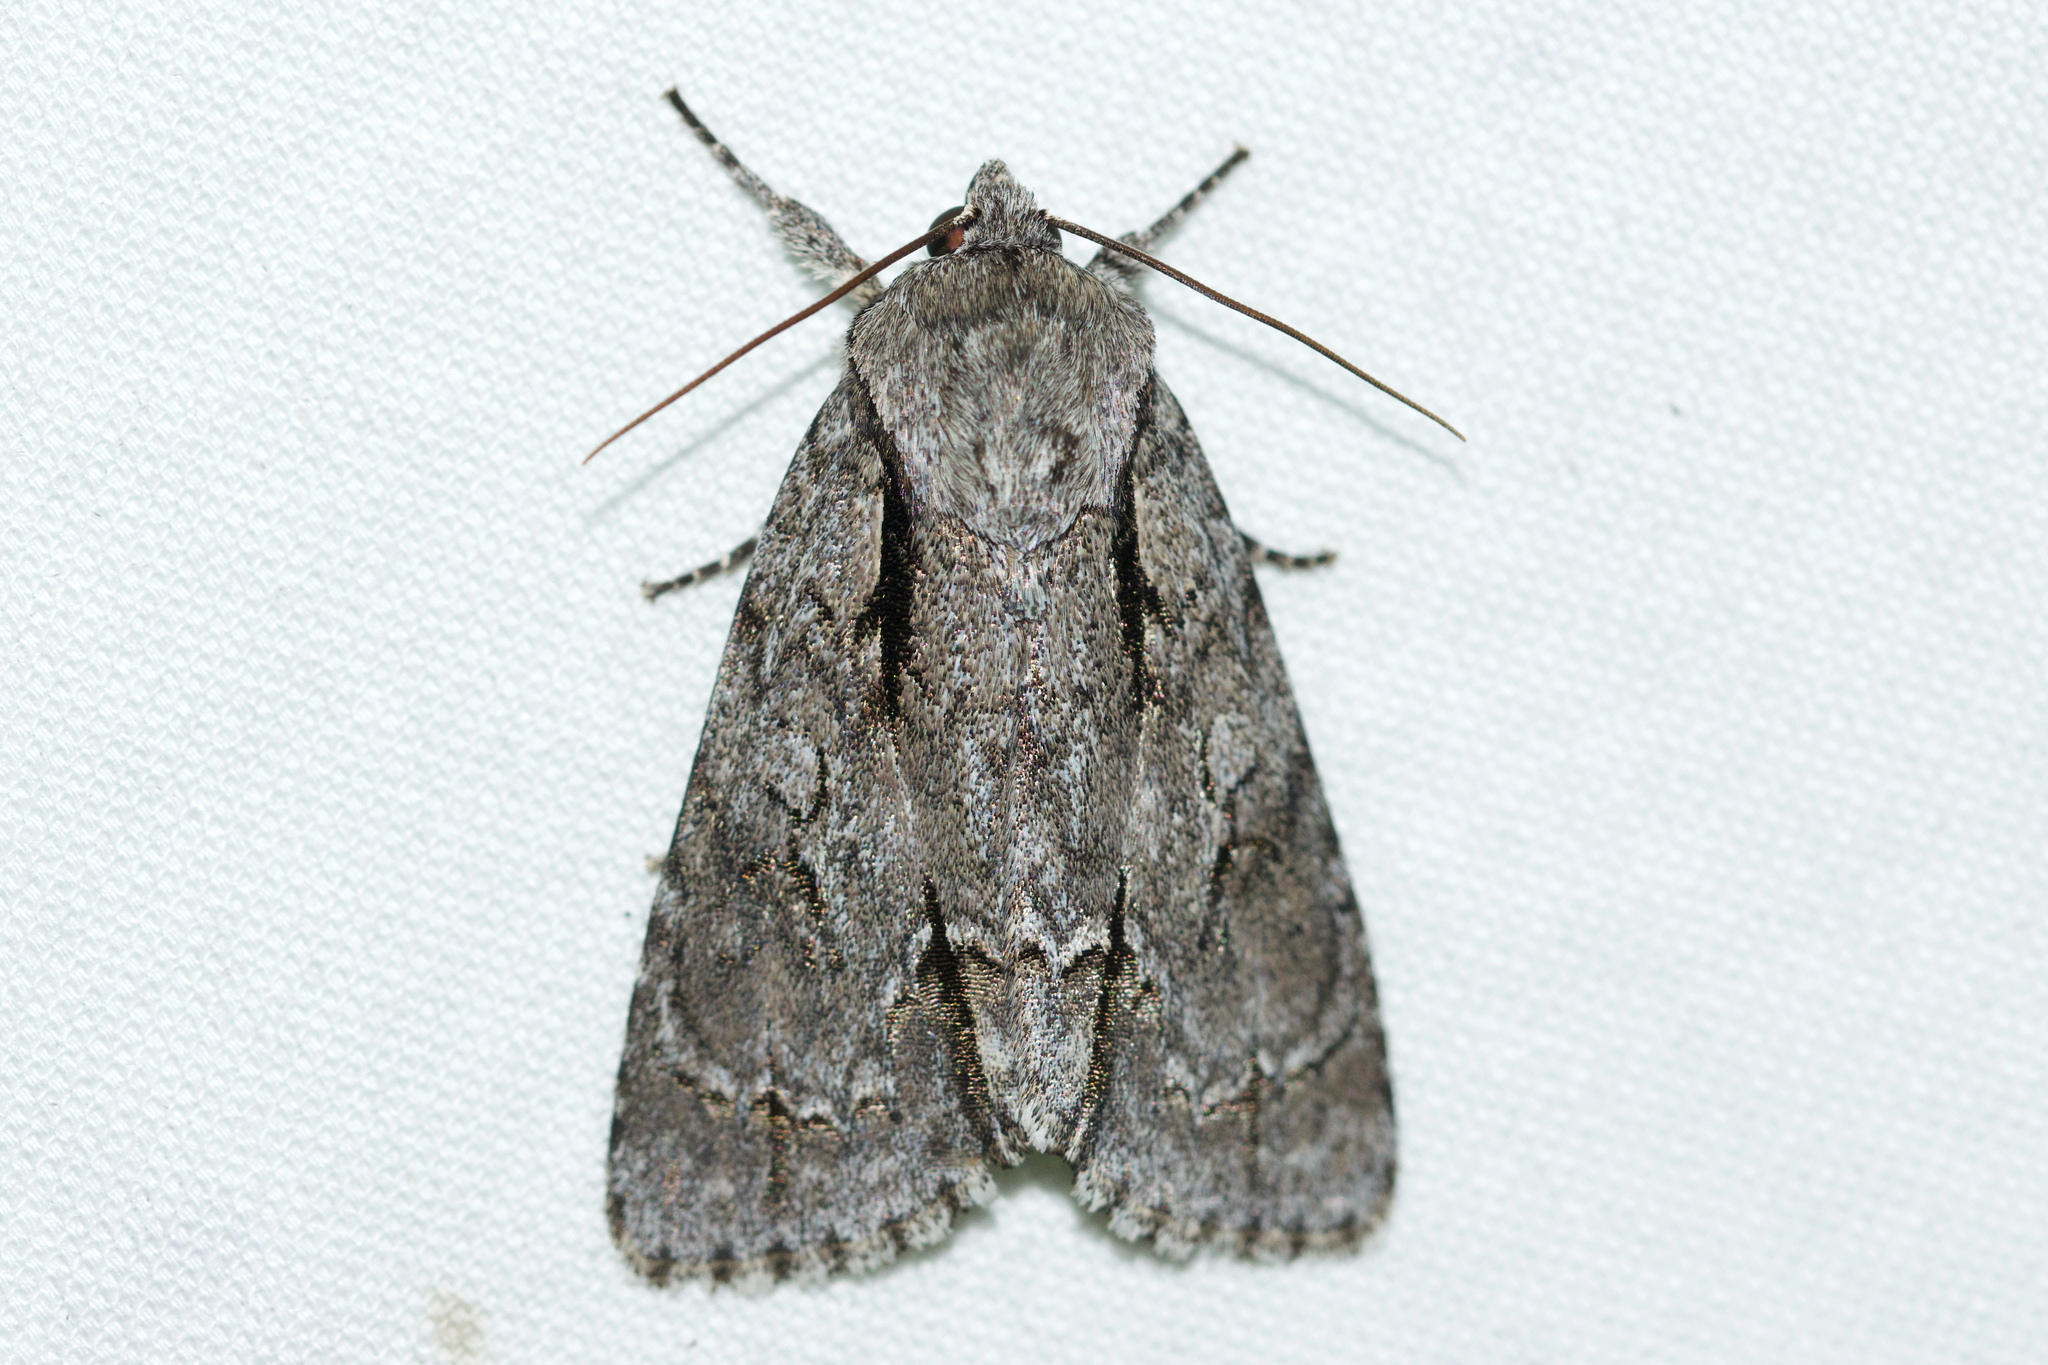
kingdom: Animalia
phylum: Arthropoda
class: Insecta
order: Lepidoptera
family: Noctuidae
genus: Acronicta
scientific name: Acronicta hasta
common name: Cherry dagger
